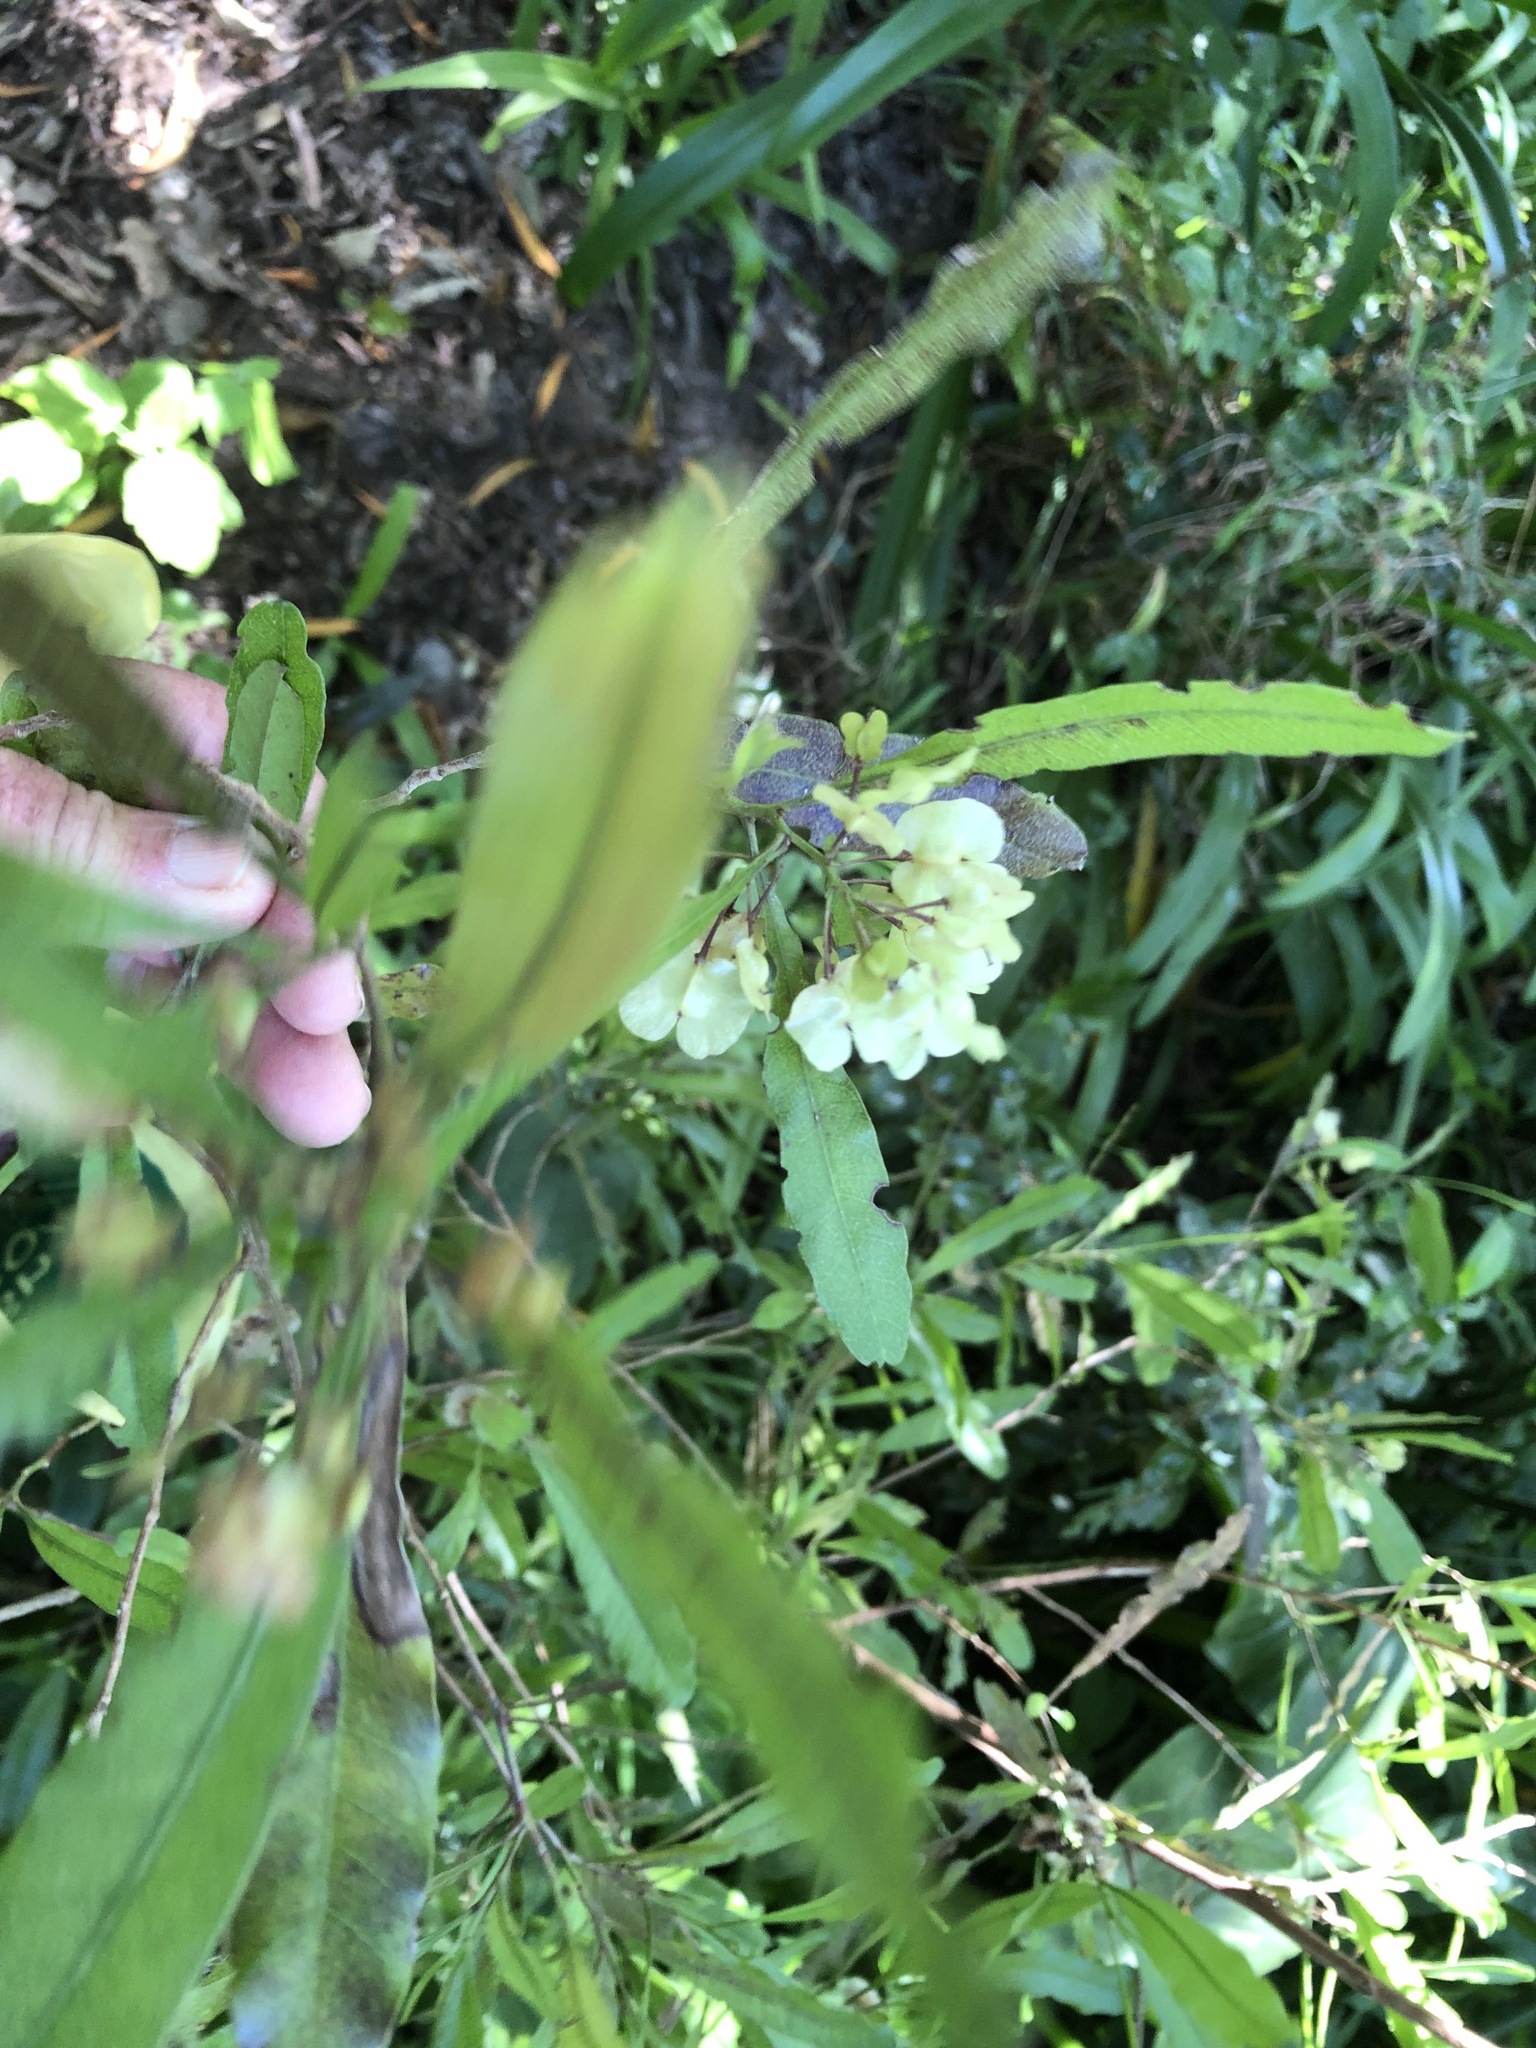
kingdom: Plantae
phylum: Tracheophyta
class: Magnoliopsida
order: Sapindales
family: Sapindaceae
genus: Dodonaea
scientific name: Dodonaea viscosa
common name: Hopbush
